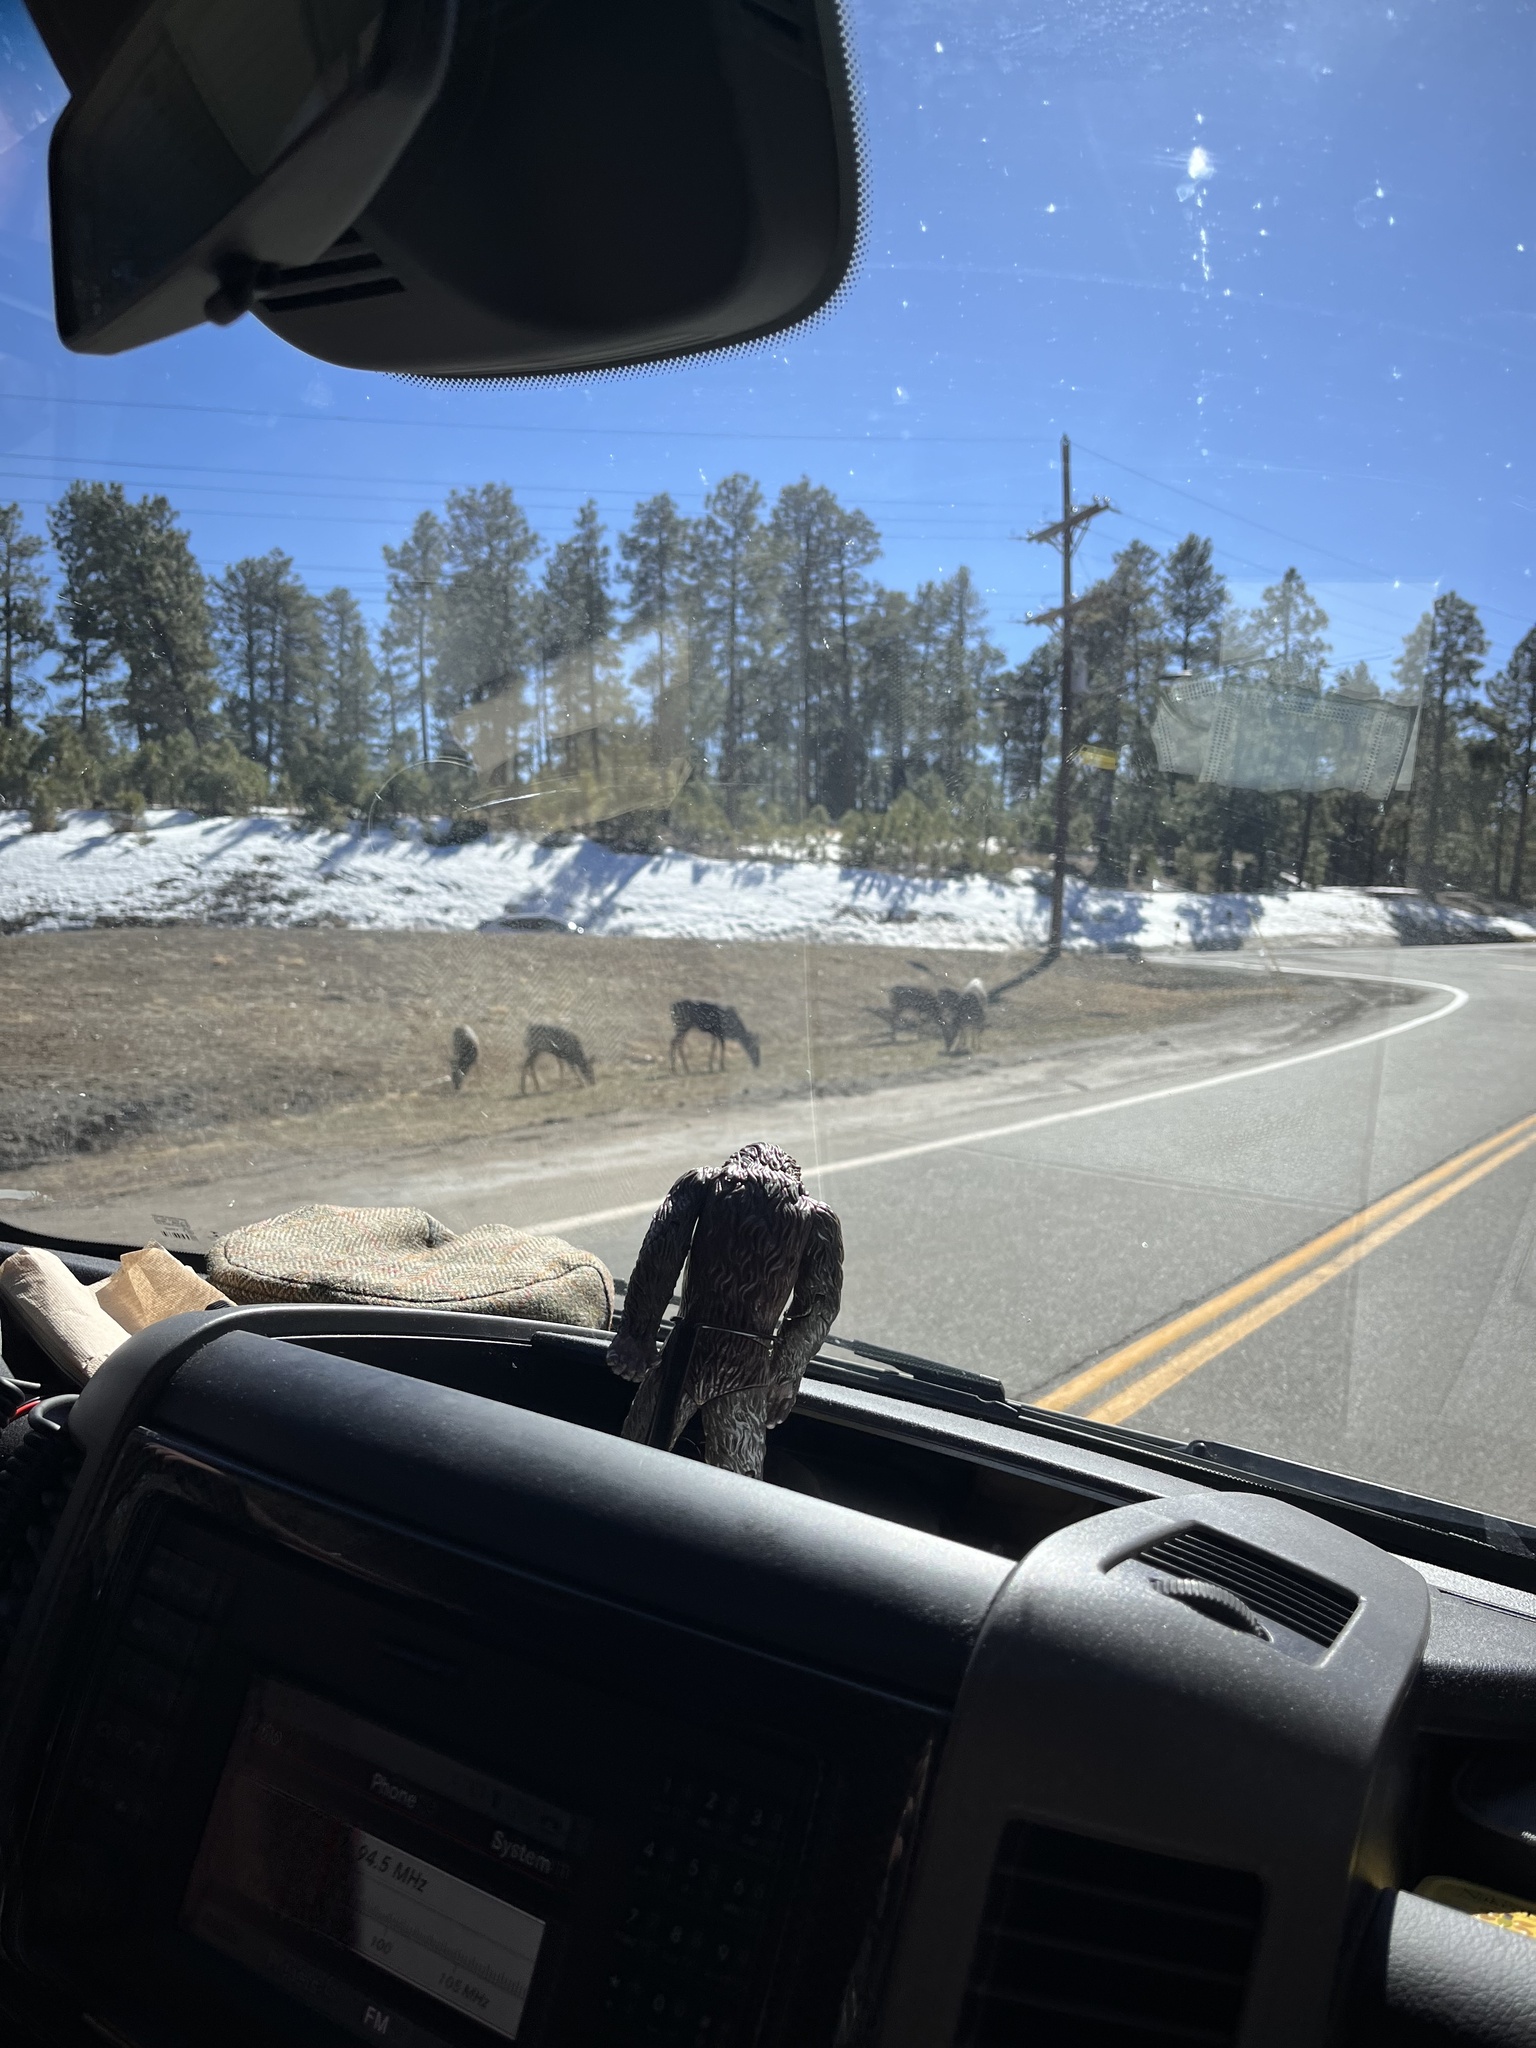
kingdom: Animalia
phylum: Chordata
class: Mammalia
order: Artiodactyla
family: Cervidae
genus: Odocoileus
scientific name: Odocoileus hemionus
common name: Mule deer
